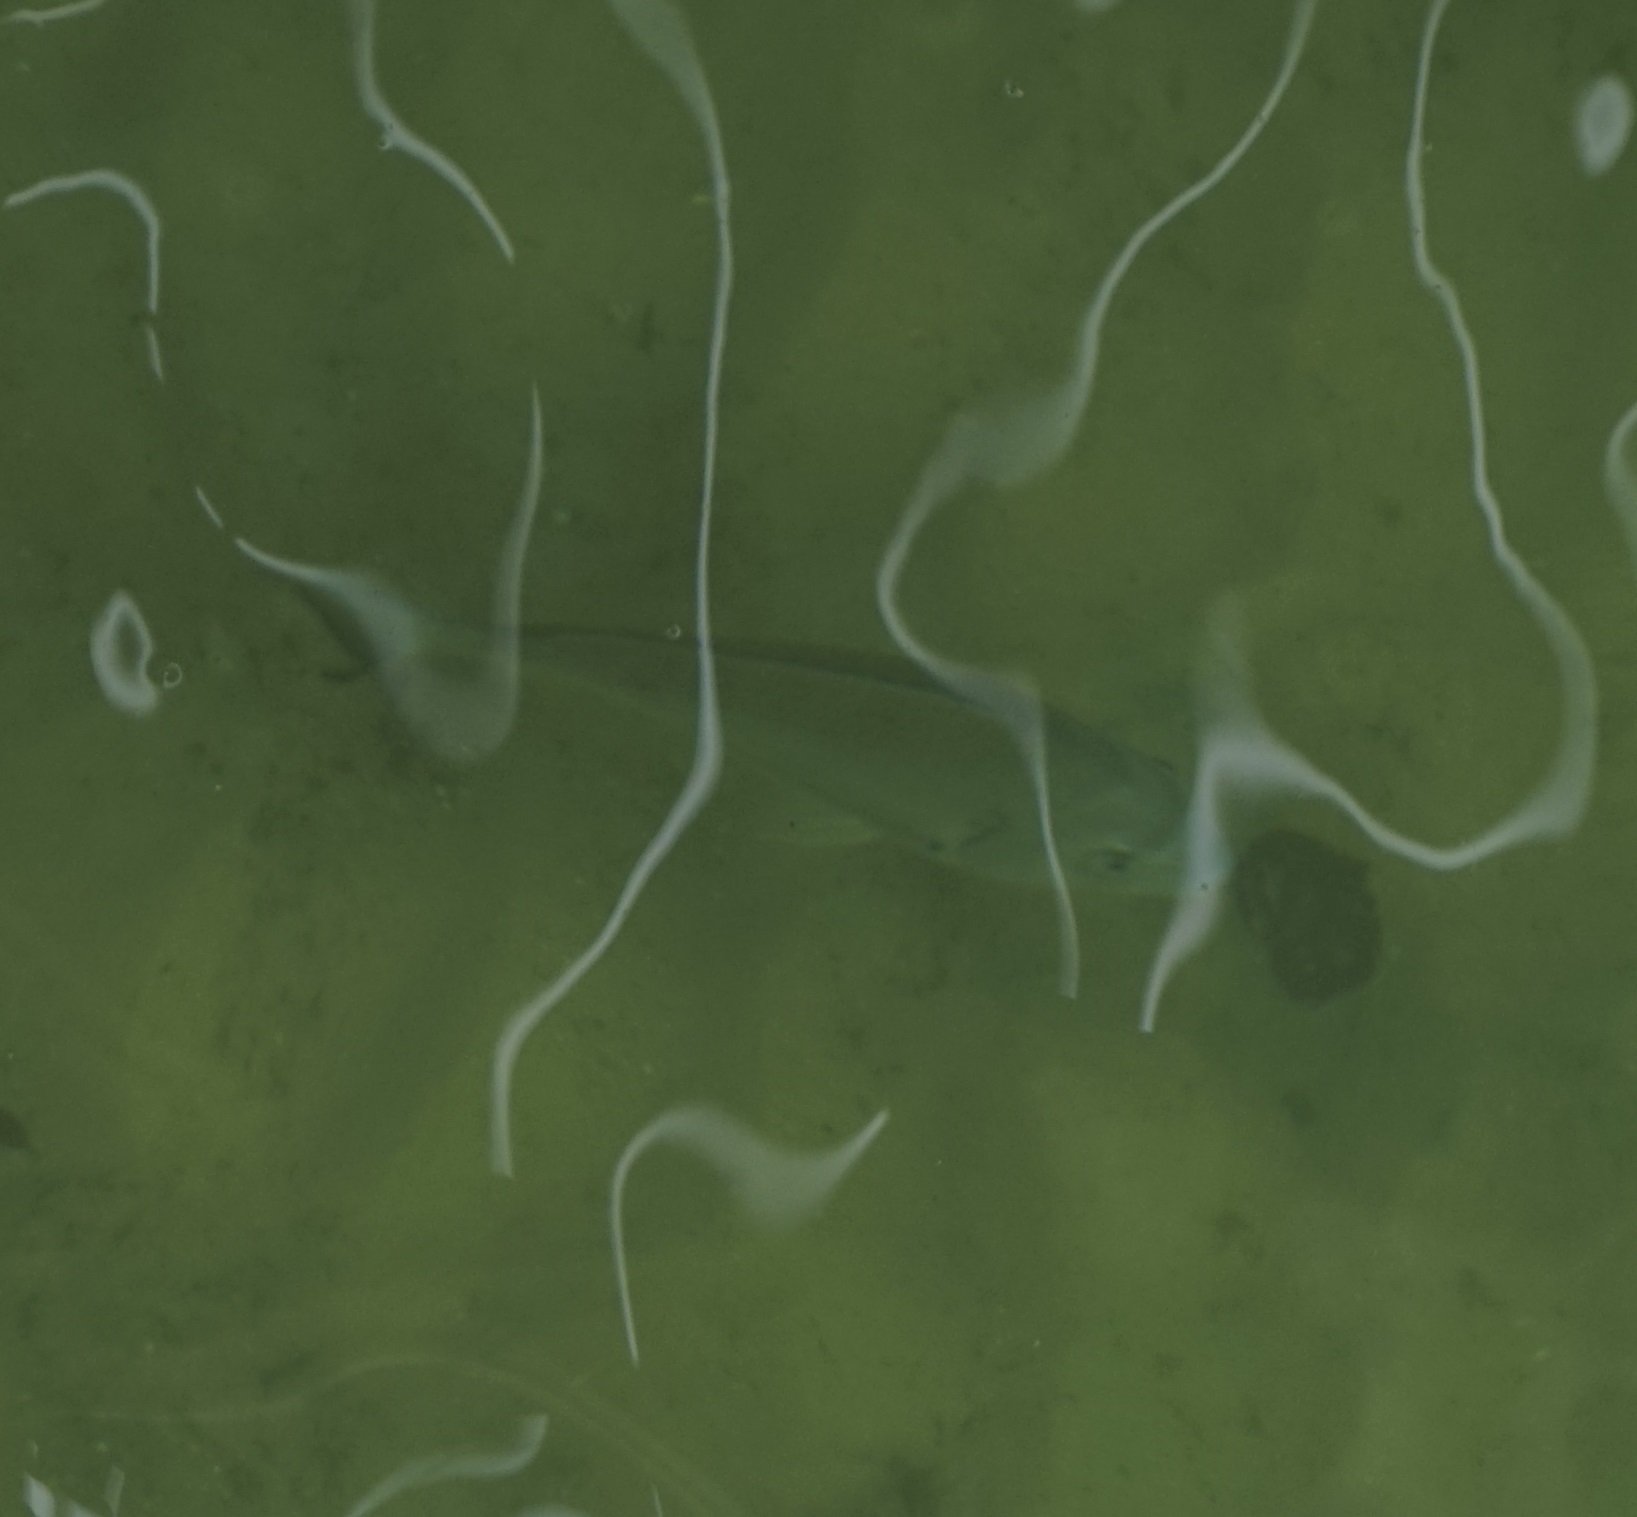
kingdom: Animalia
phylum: Chordata
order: Perciformes
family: Sparidae
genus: Acanthopagrus
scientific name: Acanthopagrus australis
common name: Surf bream
